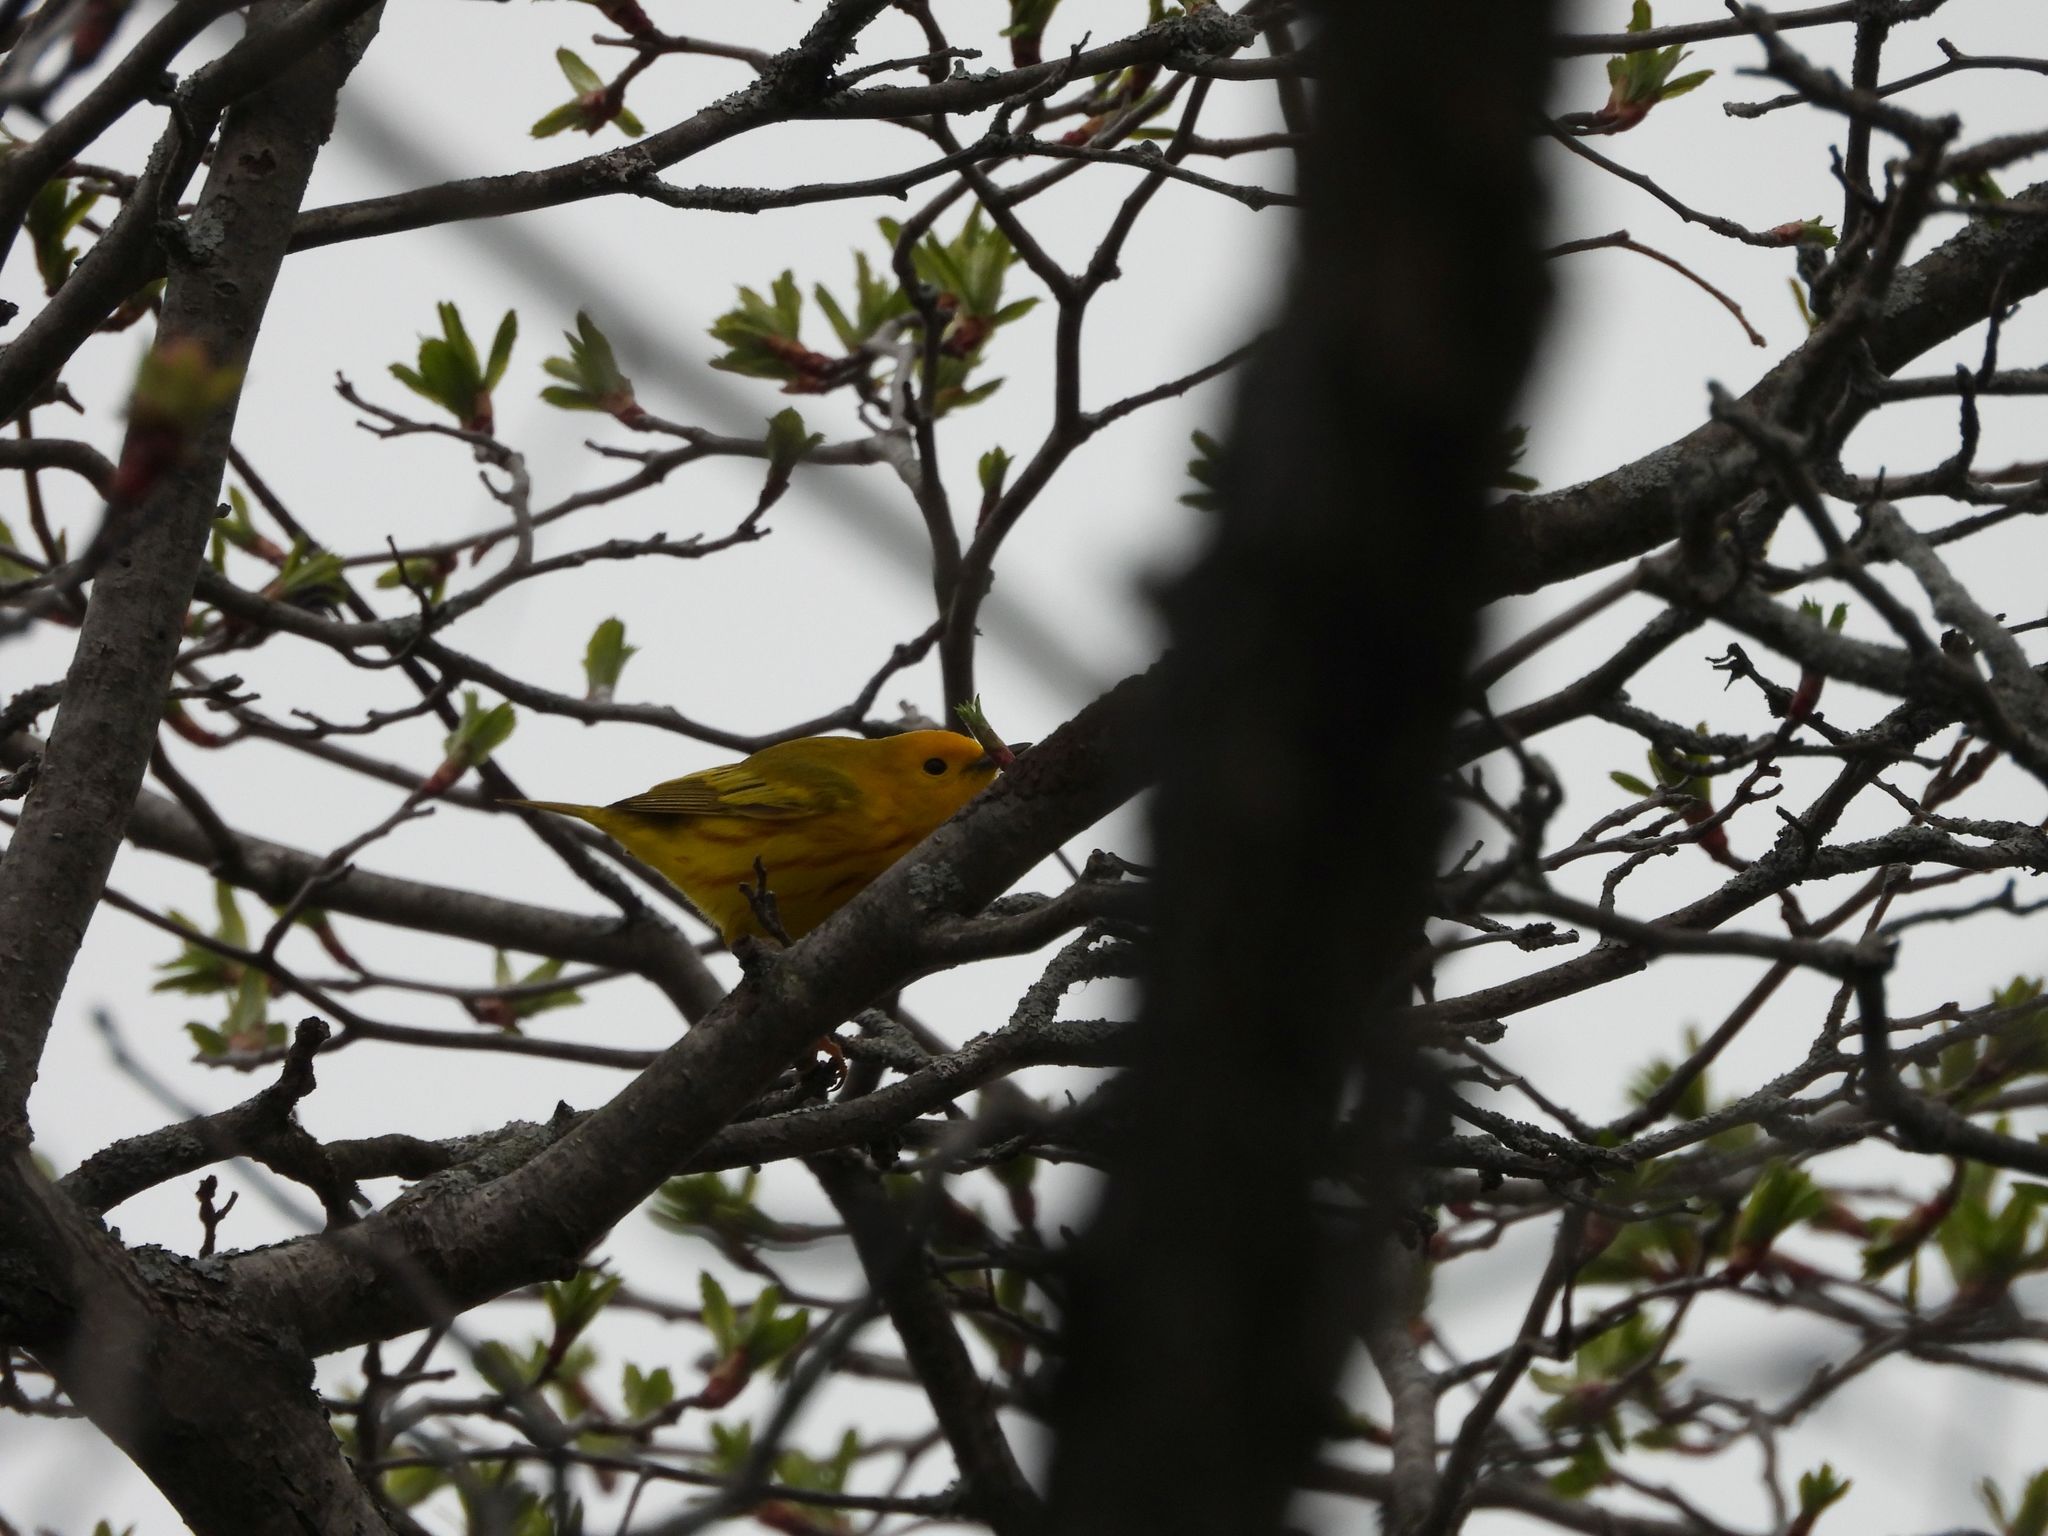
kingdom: Animalia
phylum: Chordata
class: Aves
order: Passeriformes
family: Parulidae
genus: Setophaga
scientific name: Setophaga petechia
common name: Yellow warbler
